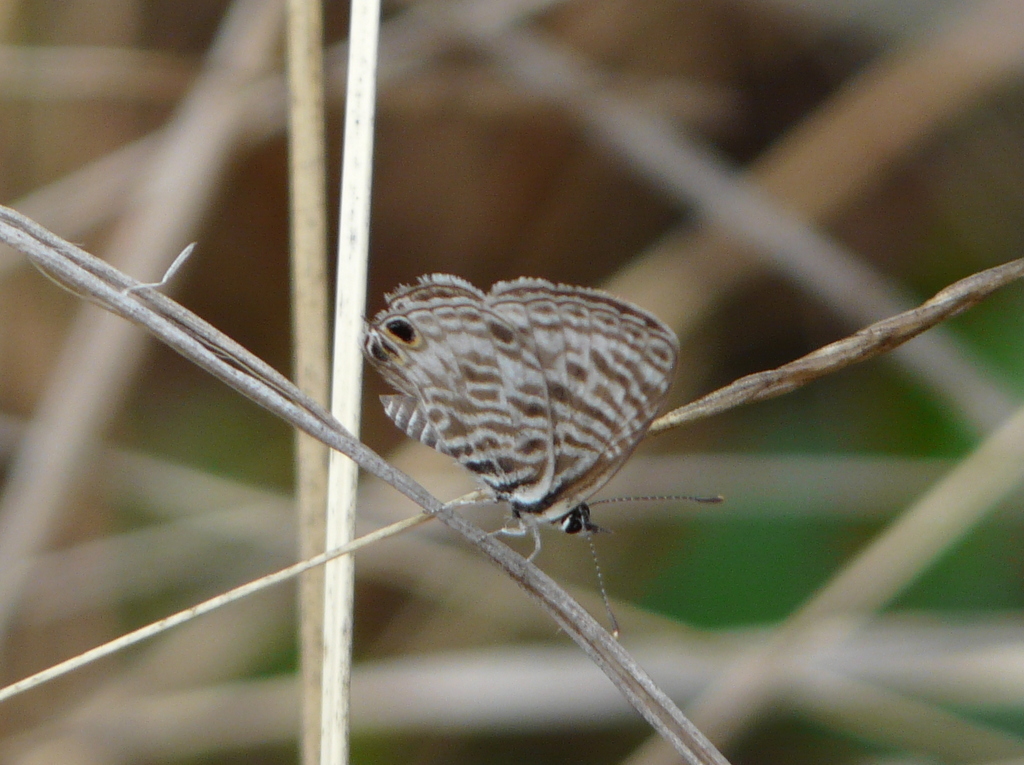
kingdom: Animalia
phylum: Arthropoda
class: Insecta
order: Lepidoptera
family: Lycaenidae
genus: Leptotes
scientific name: Leptotes
